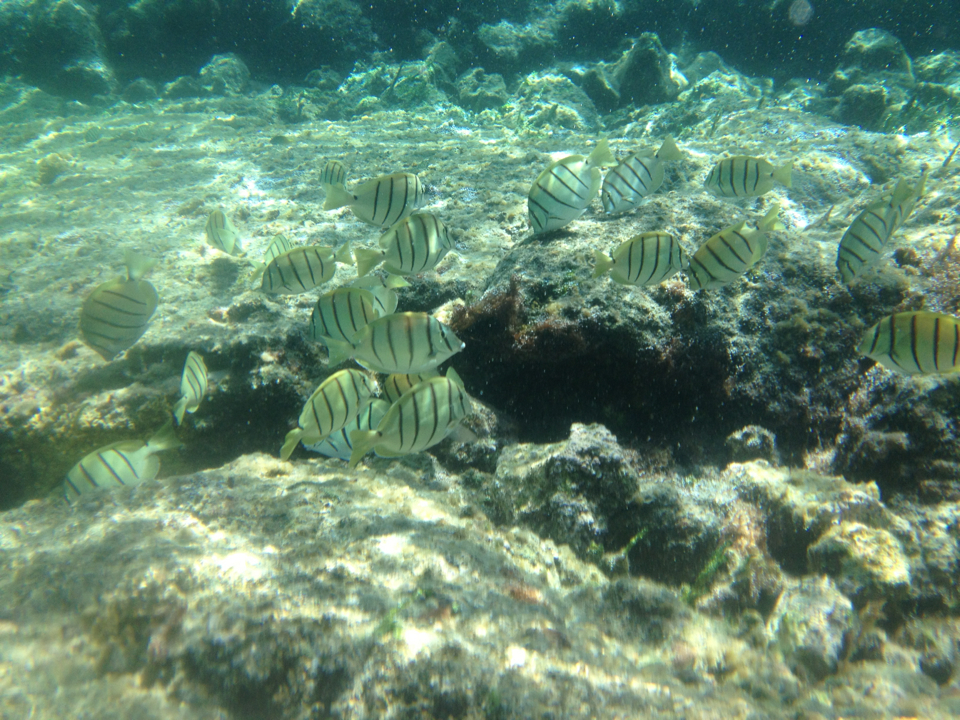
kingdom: Animalia
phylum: Chordata
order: Perciformes
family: Acanthuridae
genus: Acanthurus
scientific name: Acanthurus triostegus
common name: Convict surgeonfish
